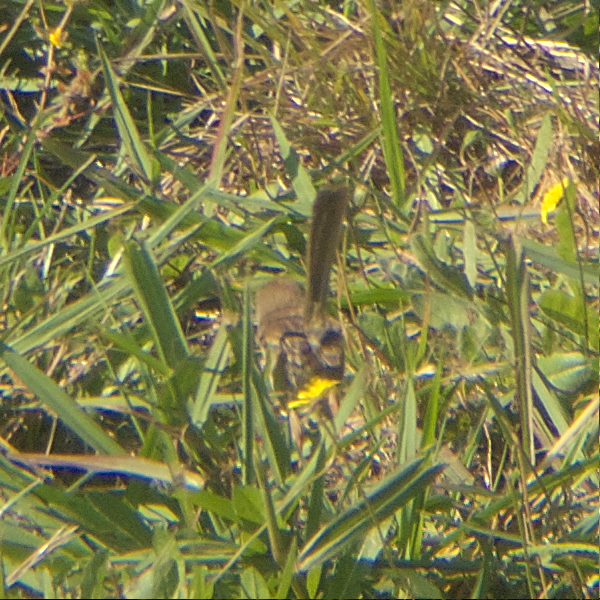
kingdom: Animalia
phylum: Chordata
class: Aves
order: Passeriformes
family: Maluridae
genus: Malurus
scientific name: Malurus cyaneus
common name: Superb fairywren
